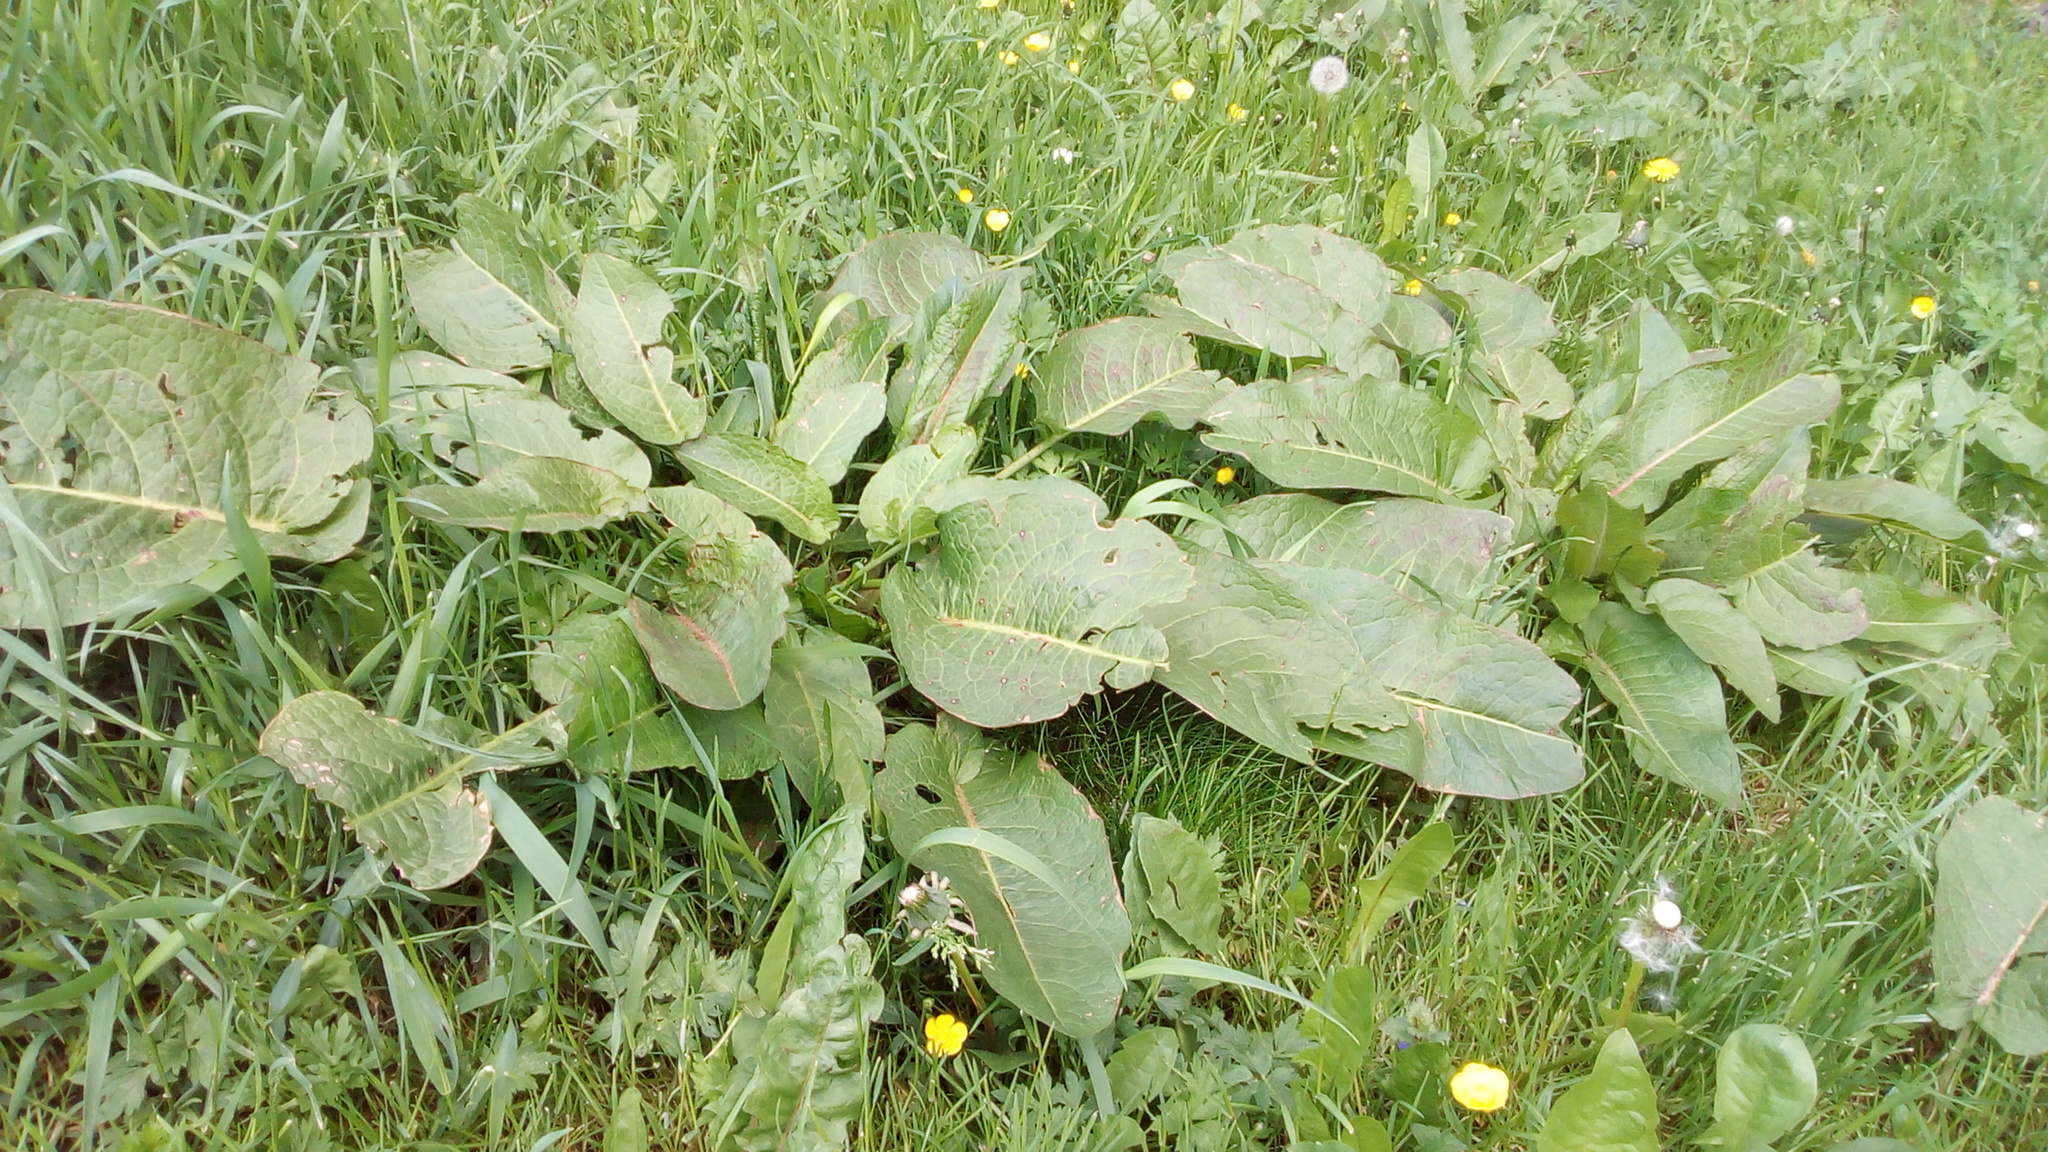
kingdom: Plantae
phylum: Tracheophyta
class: Magnoliopsida
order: Caryophyllales
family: Polygonaceae
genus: Rumex
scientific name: Rumex obtusifolius
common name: Bitter dock
